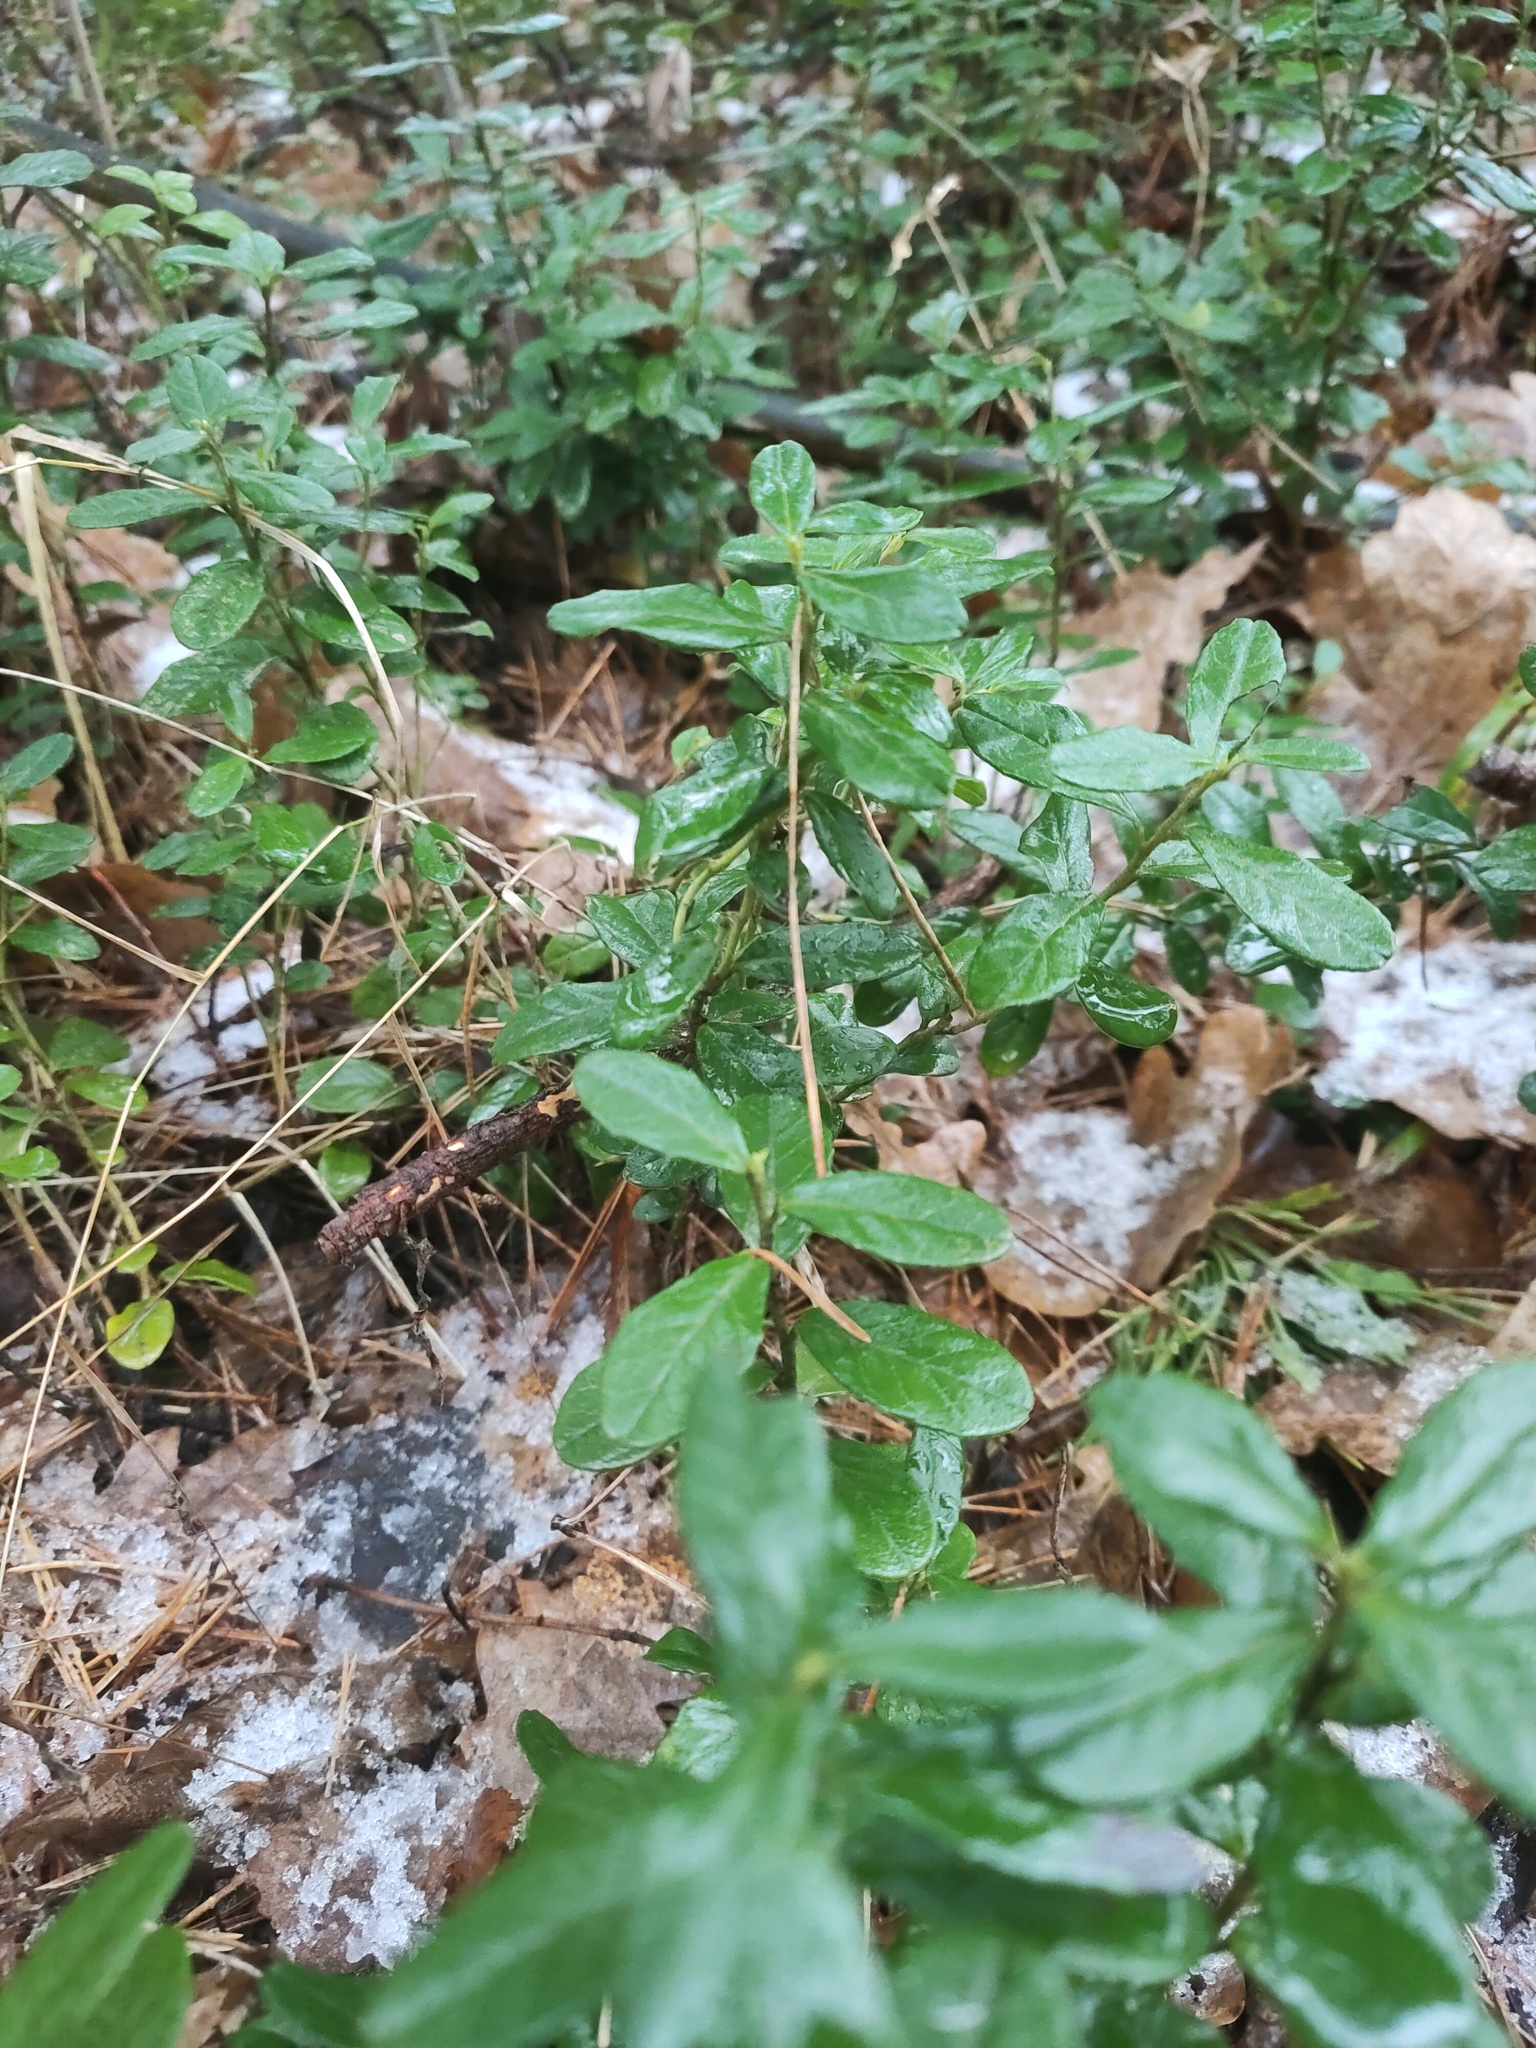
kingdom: Plantae
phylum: Tracheophyta
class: Magnoliopsida
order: Ericales
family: Ericaceae
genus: Vaccinium
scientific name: Vaccinium vitis-idaea
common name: Cowberry
